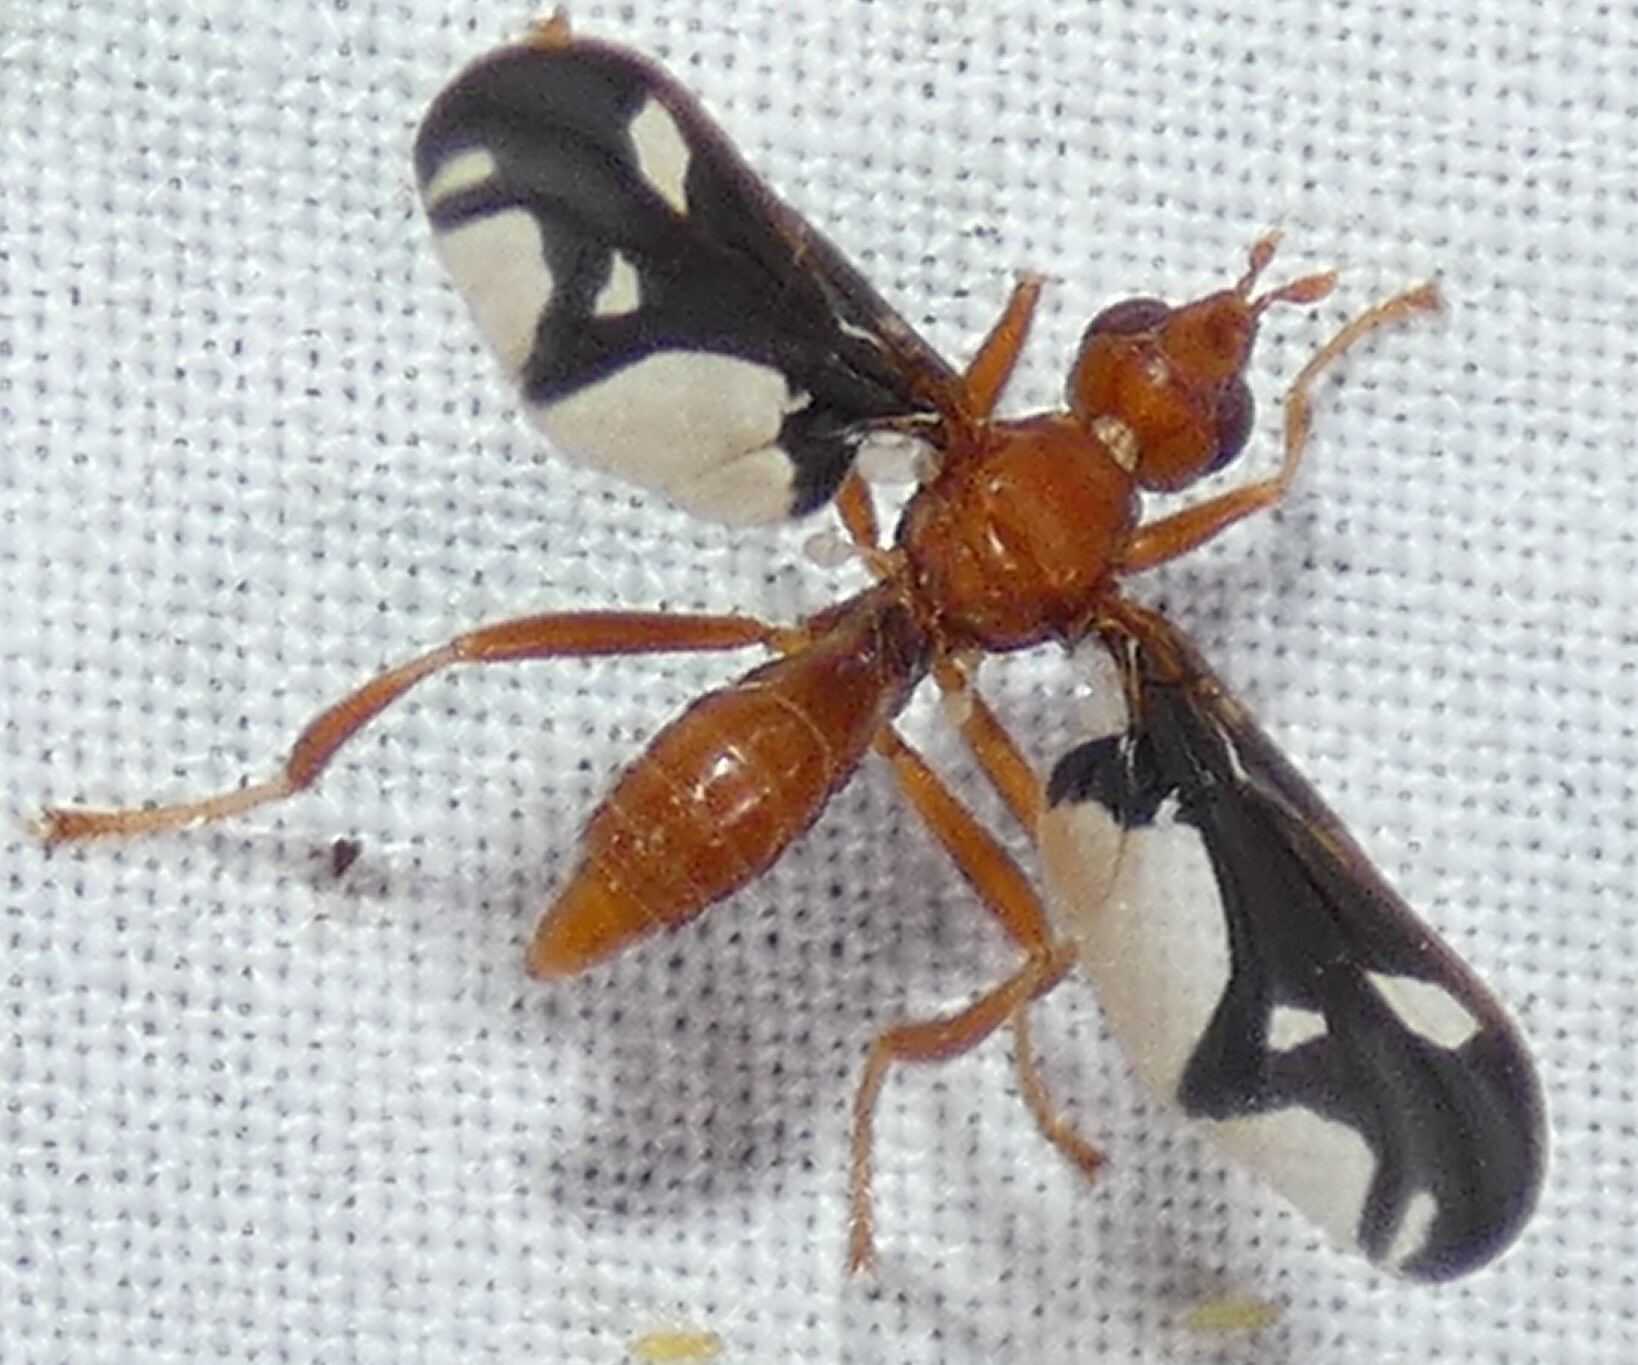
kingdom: Animalia
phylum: Arthropoda
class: Insecta
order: Diptera
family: Pyrgotidae
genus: Pyrgota
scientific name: Pyrgota undata
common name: Waved light fly
